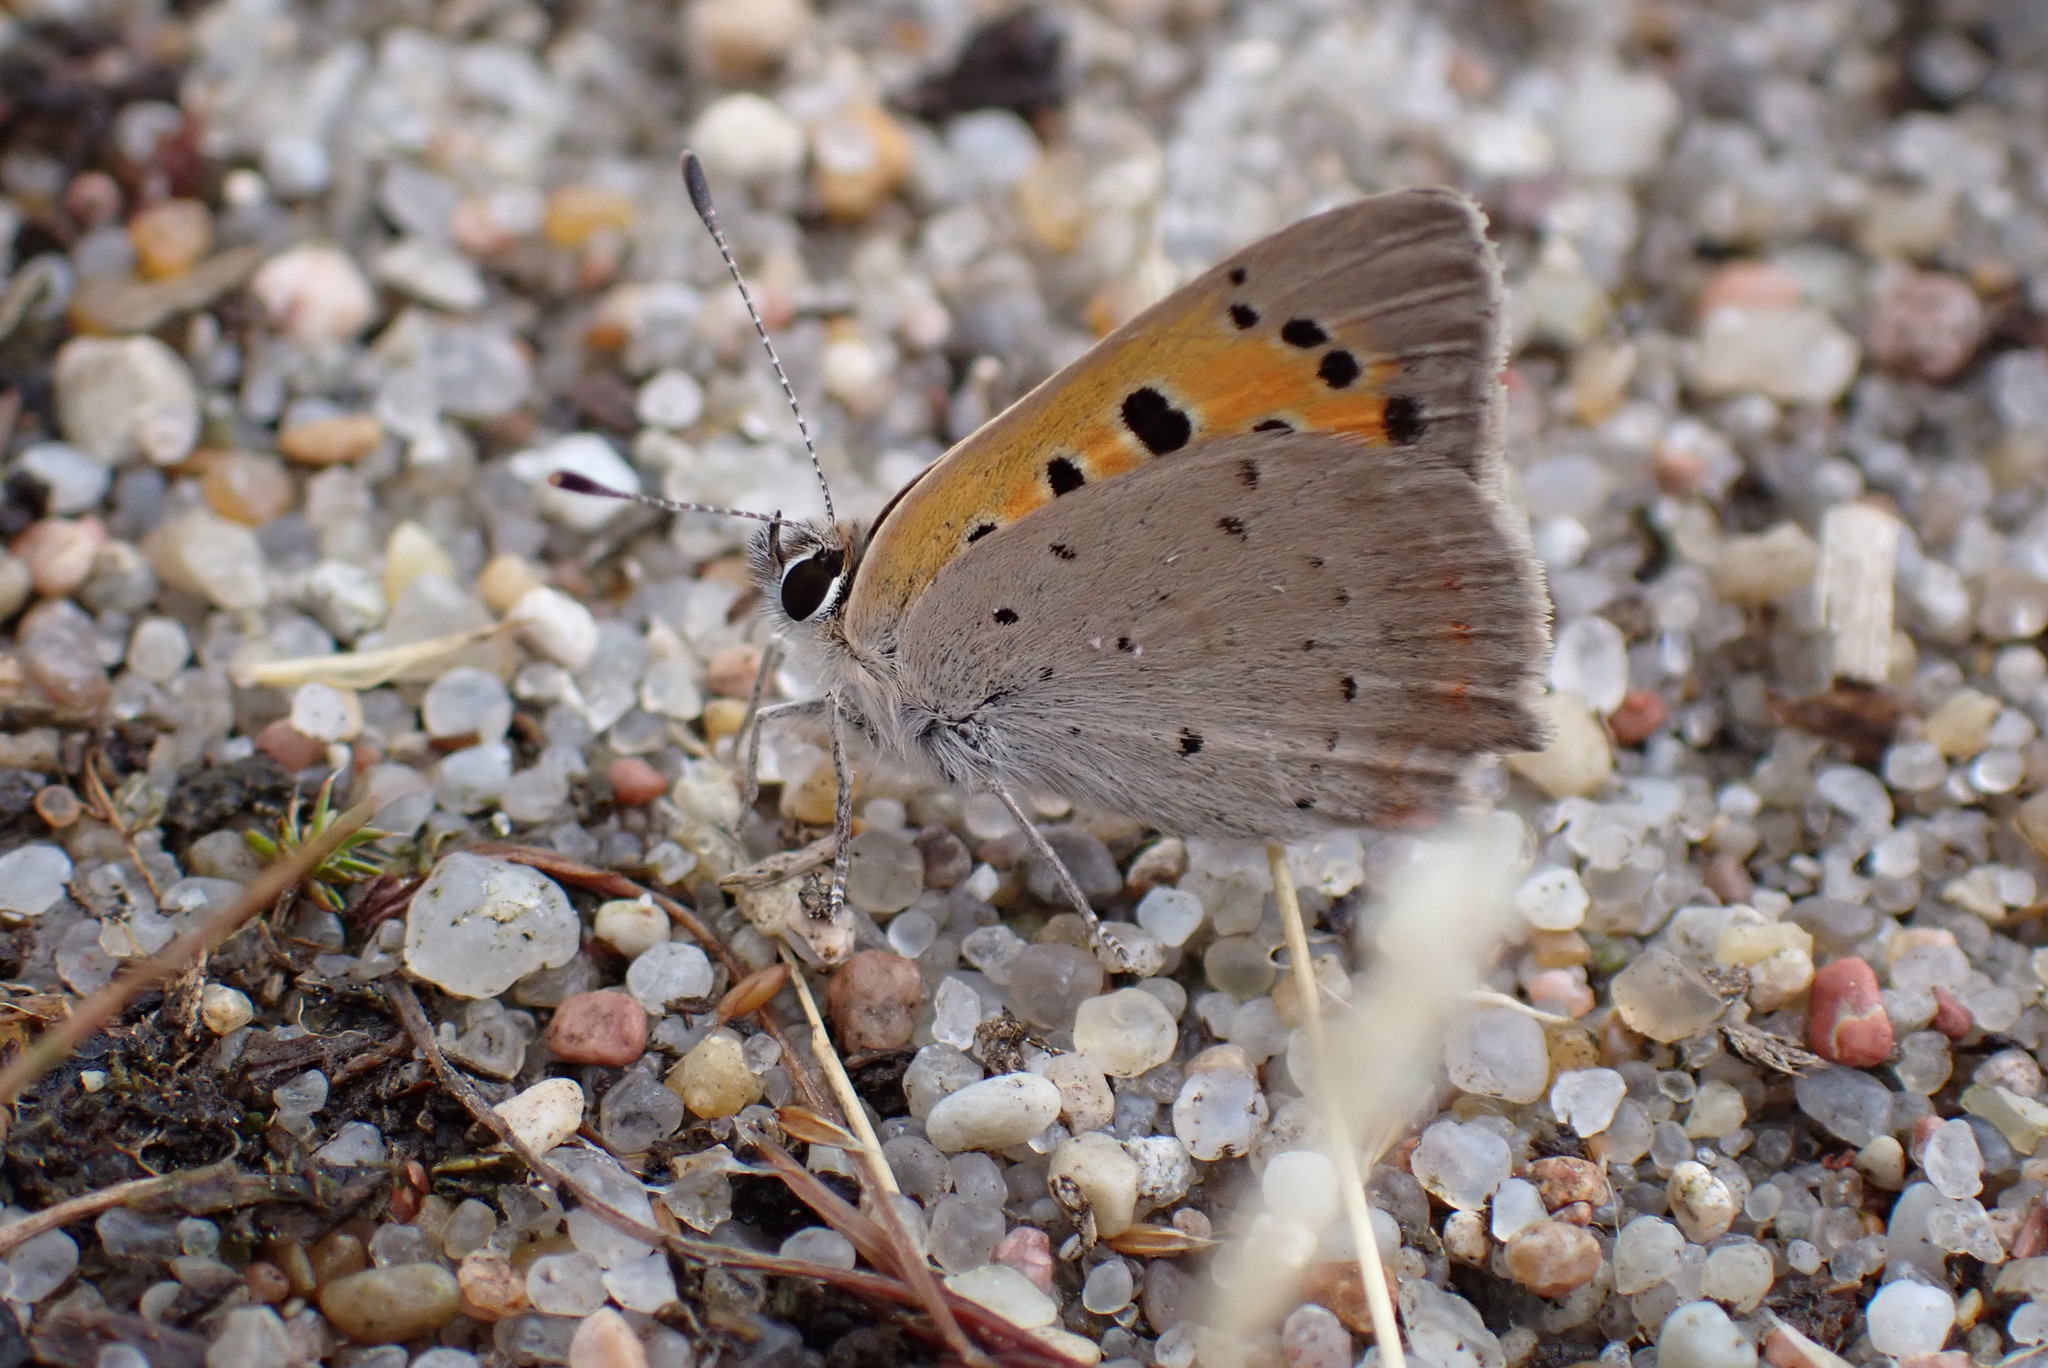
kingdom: Animalia
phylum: Arthropoda
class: Insecta
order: Lepidoptera
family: Lycaenidae
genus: Lycaena
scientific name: Lycaena phlaeas
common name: Small copper
